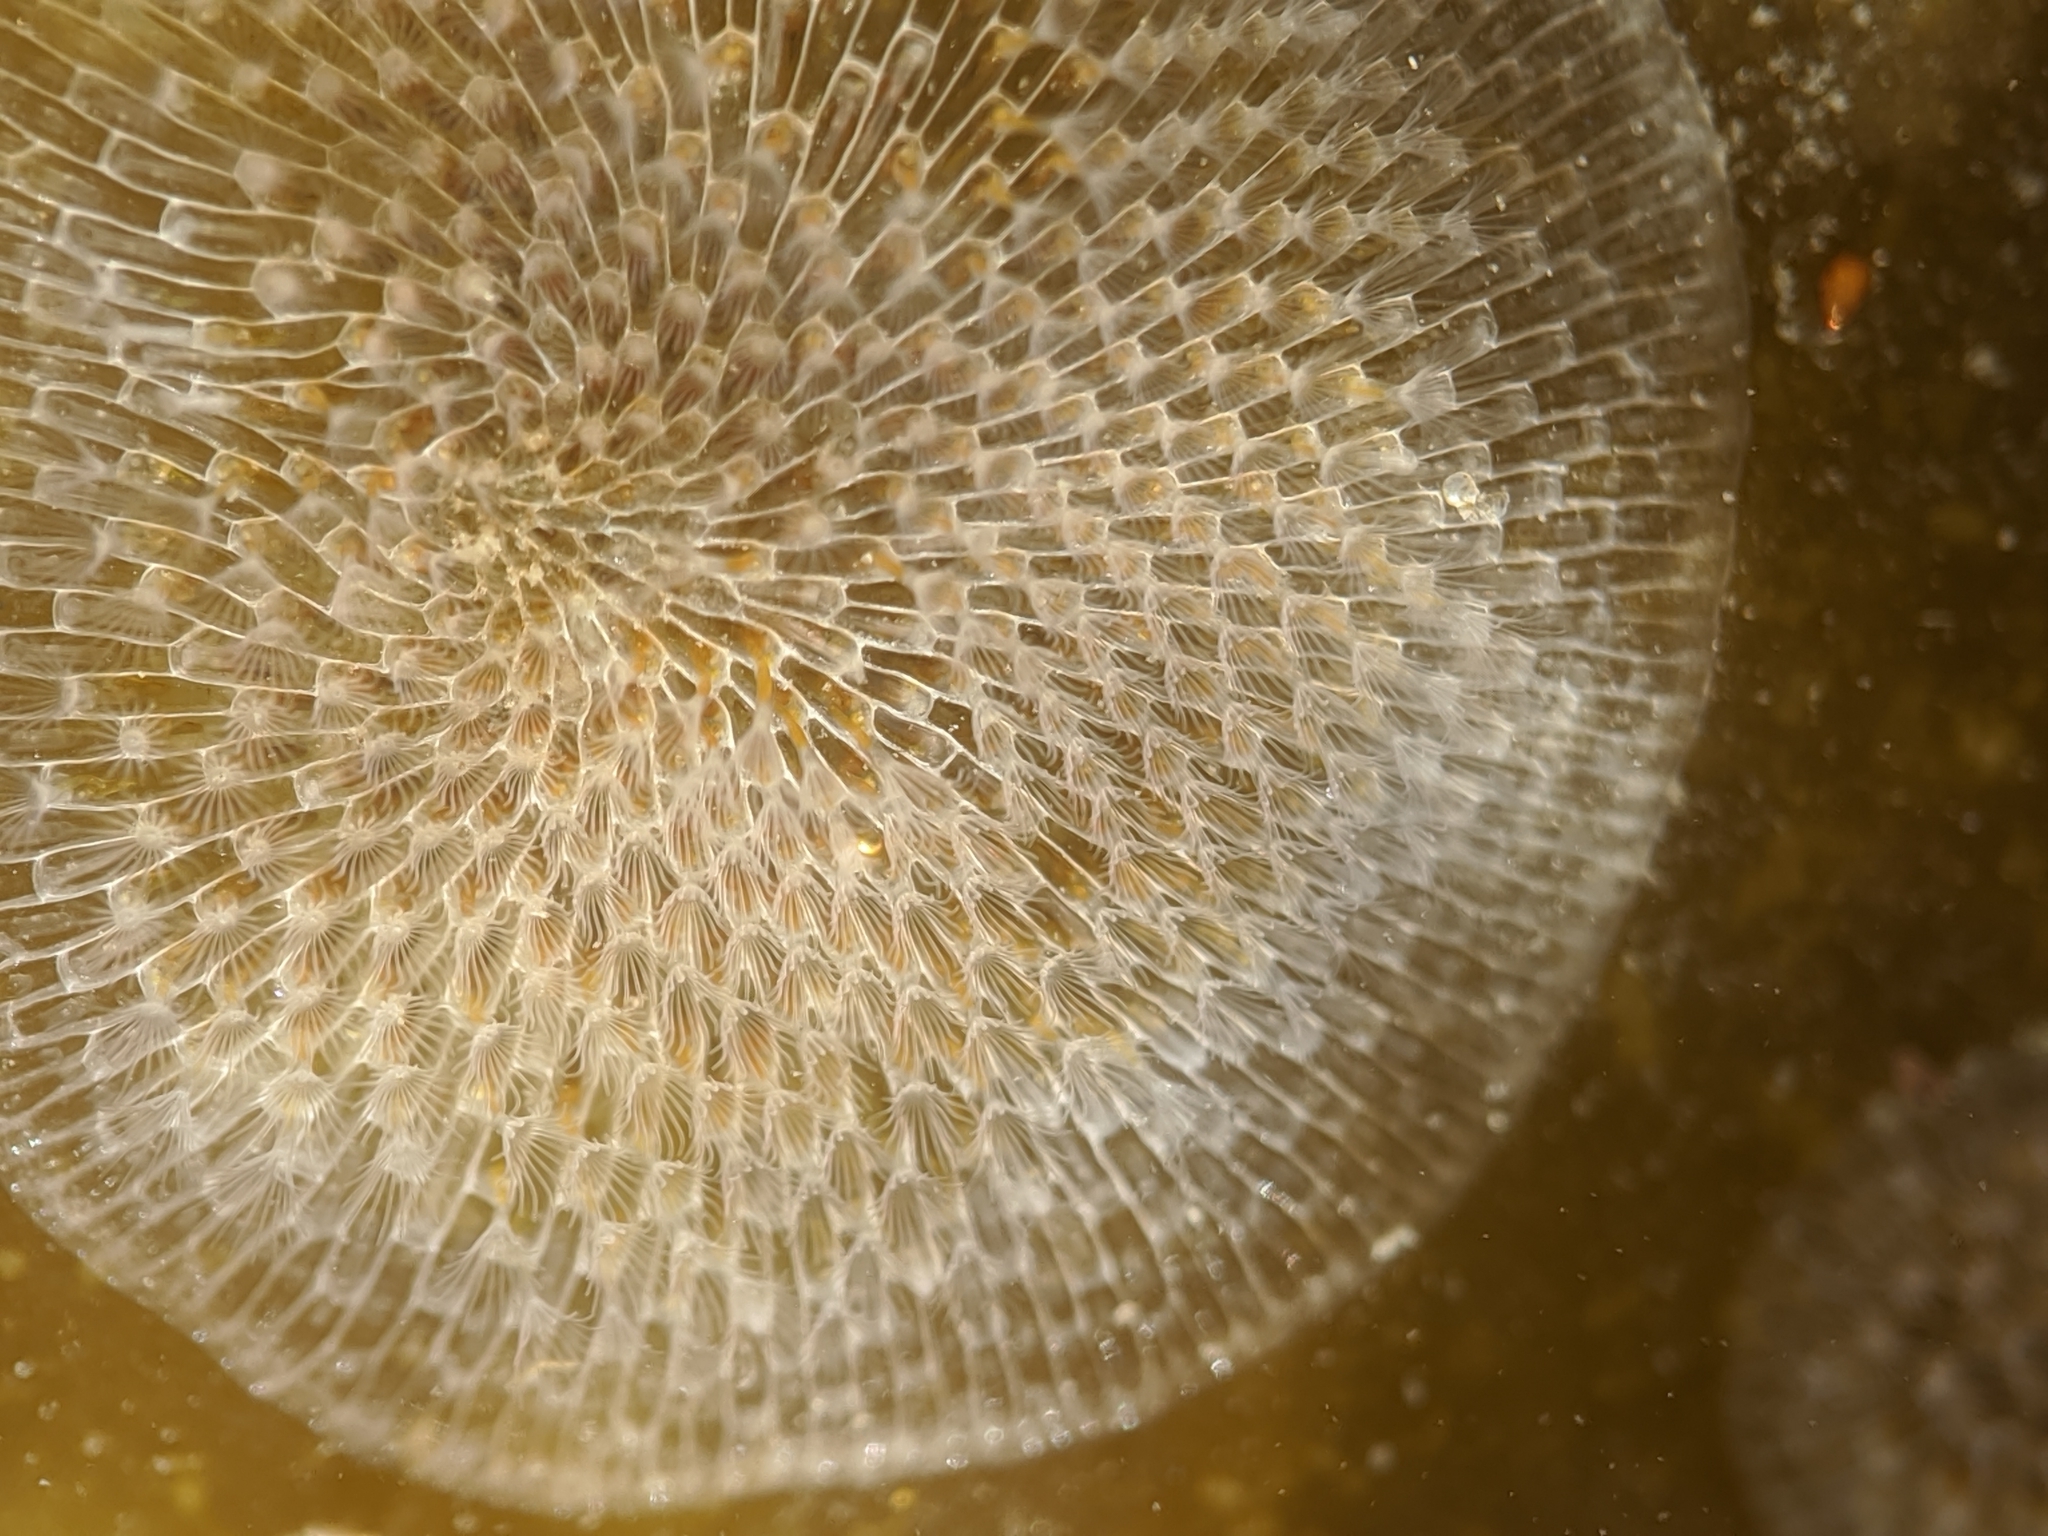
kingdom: Animalia
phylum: Bryozoa
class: Gymnolaemata
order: Cheilostomatida
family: Membraniporidae
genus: Membranipora
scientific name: Membranipora membranacea
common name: Sea mat
